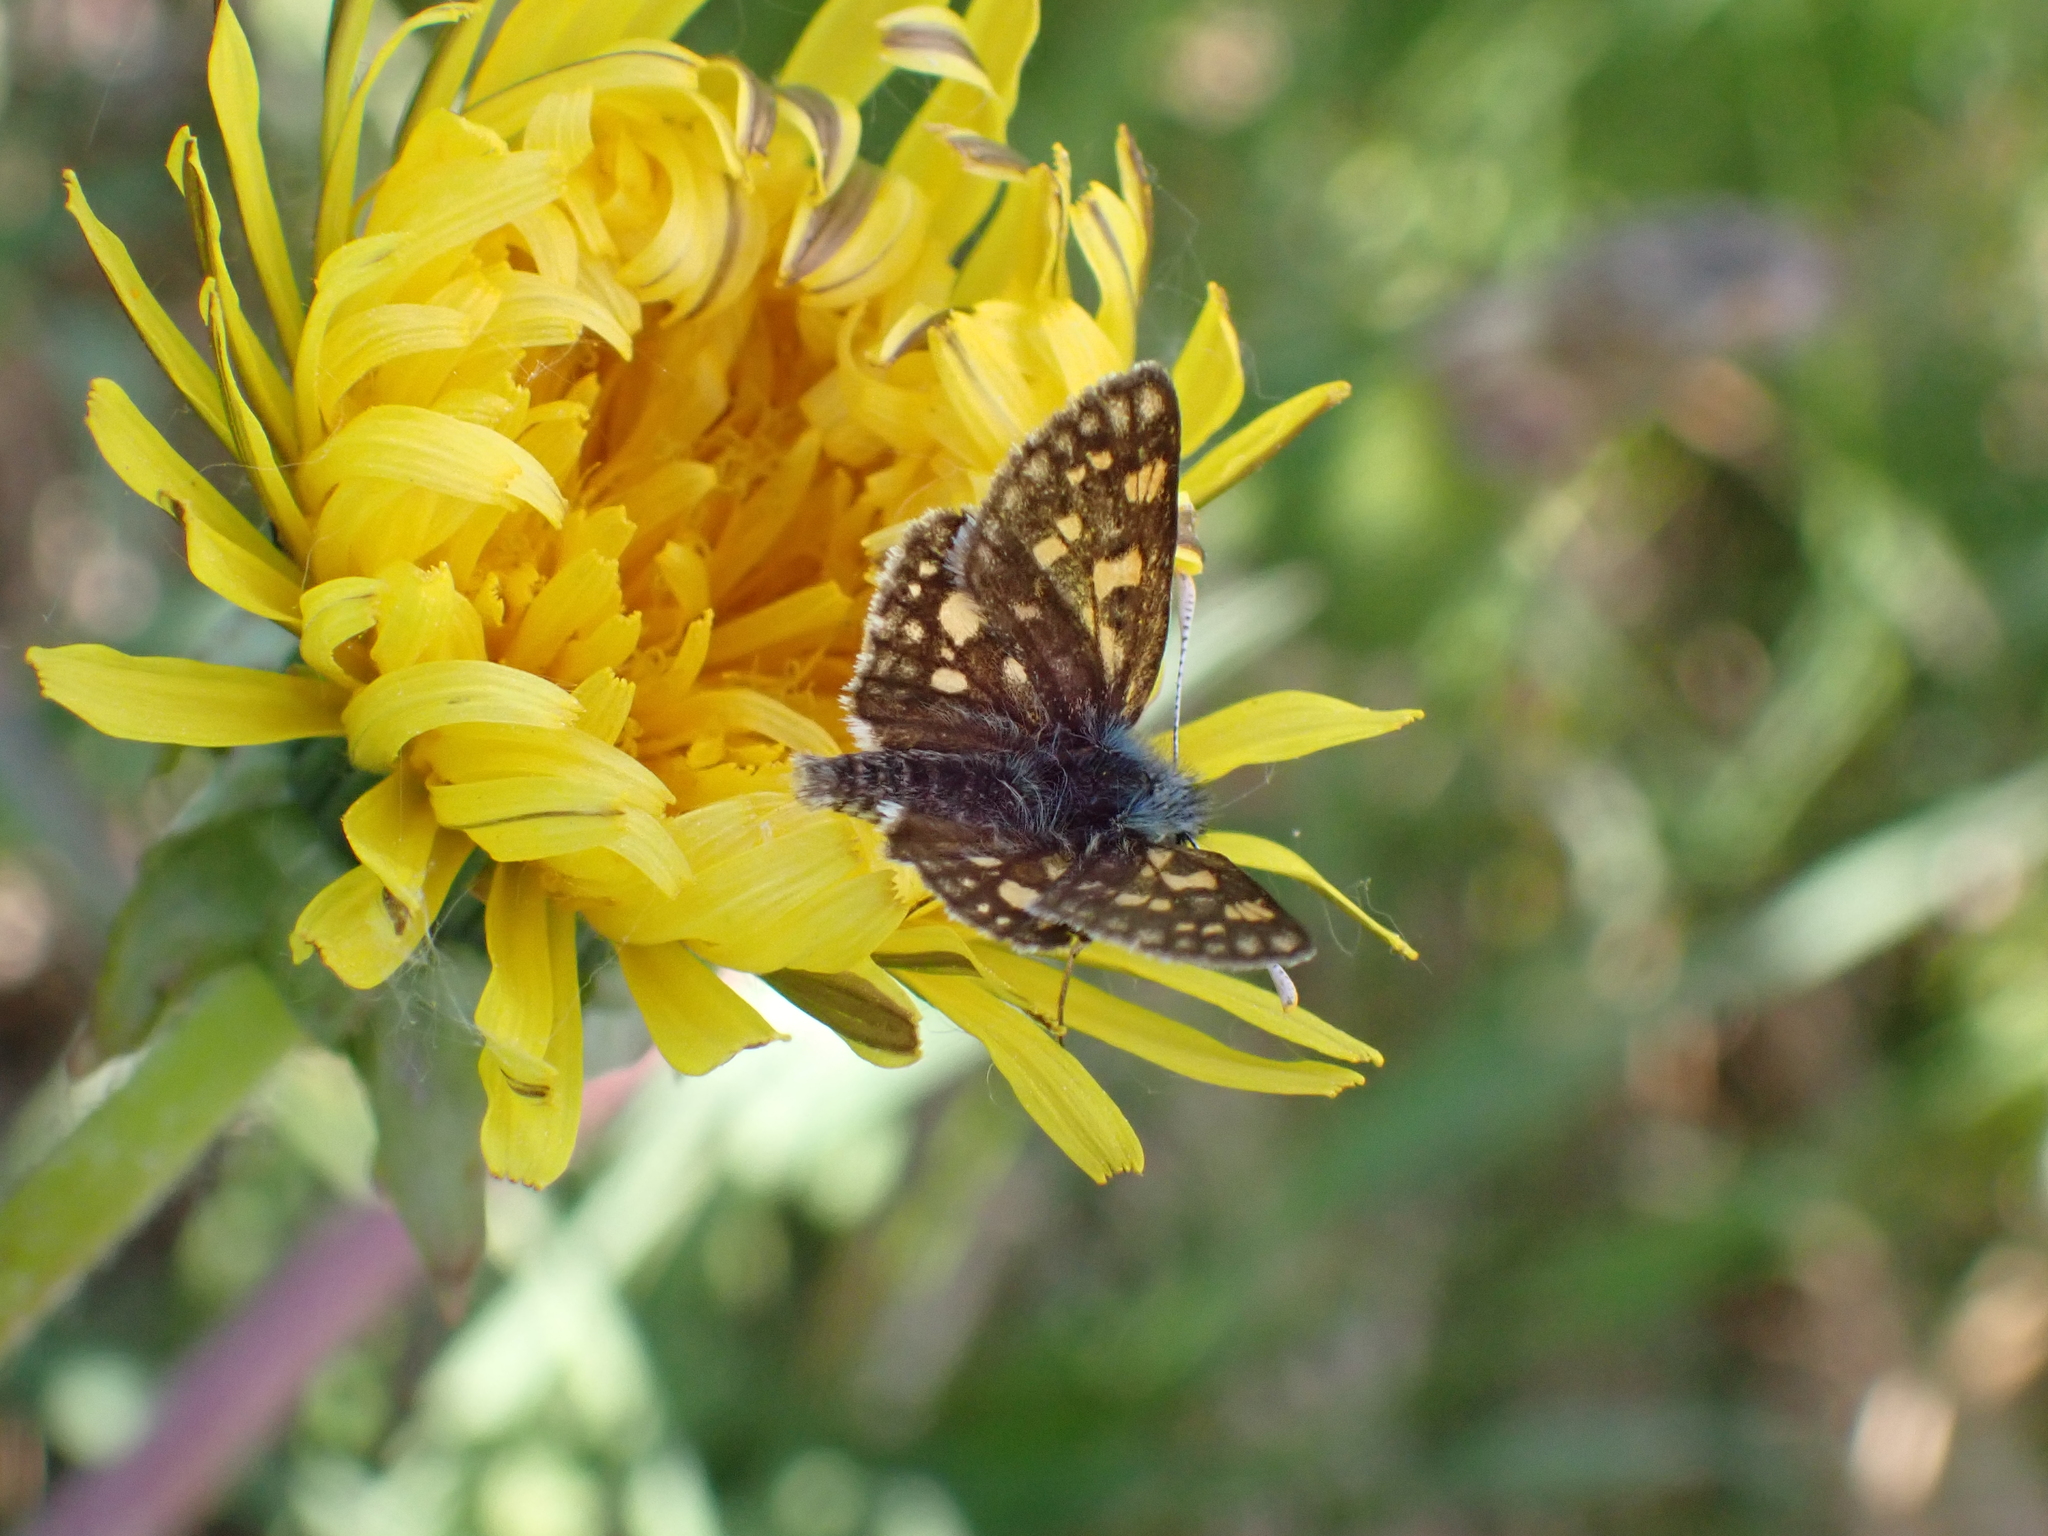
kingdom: Animalia
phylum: Arthropoda
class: Insecta
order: Lepidoptera
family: Hesperiidae
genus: Carterocephalus
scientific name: Carterocephalus palaemon
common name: Chequered skipper
